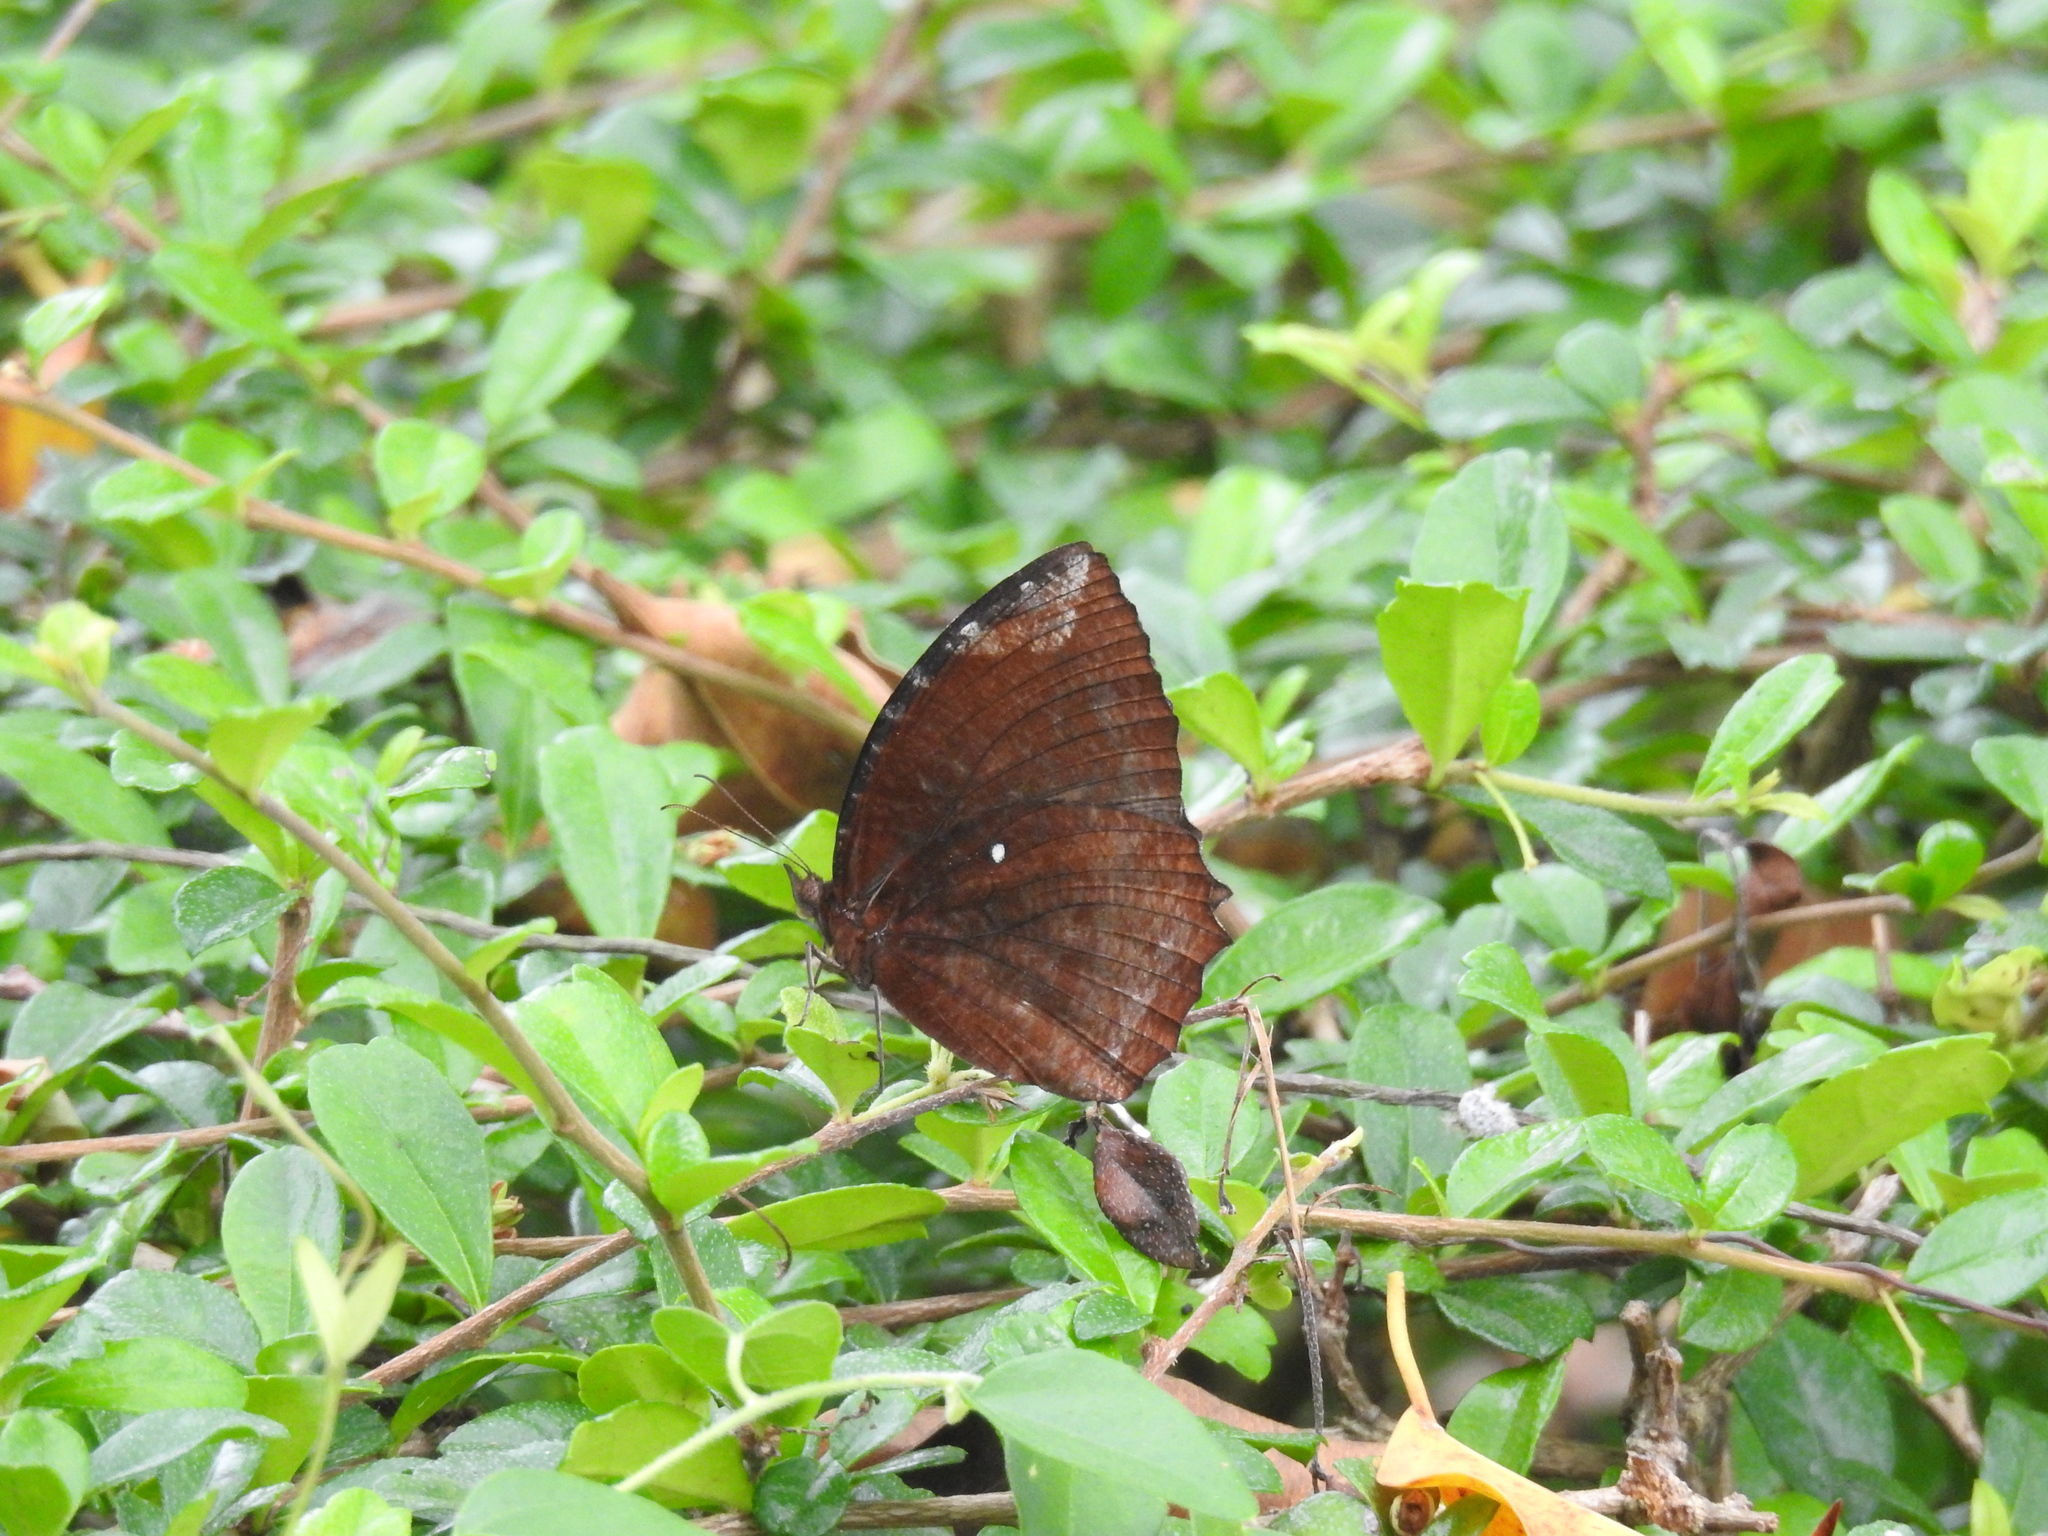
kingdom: Animalia
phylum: Arthropoda
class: Insecta
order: Lepidoptera
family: Nymphalidae
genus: Elymnias
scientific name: Elymnias hypermnestra
